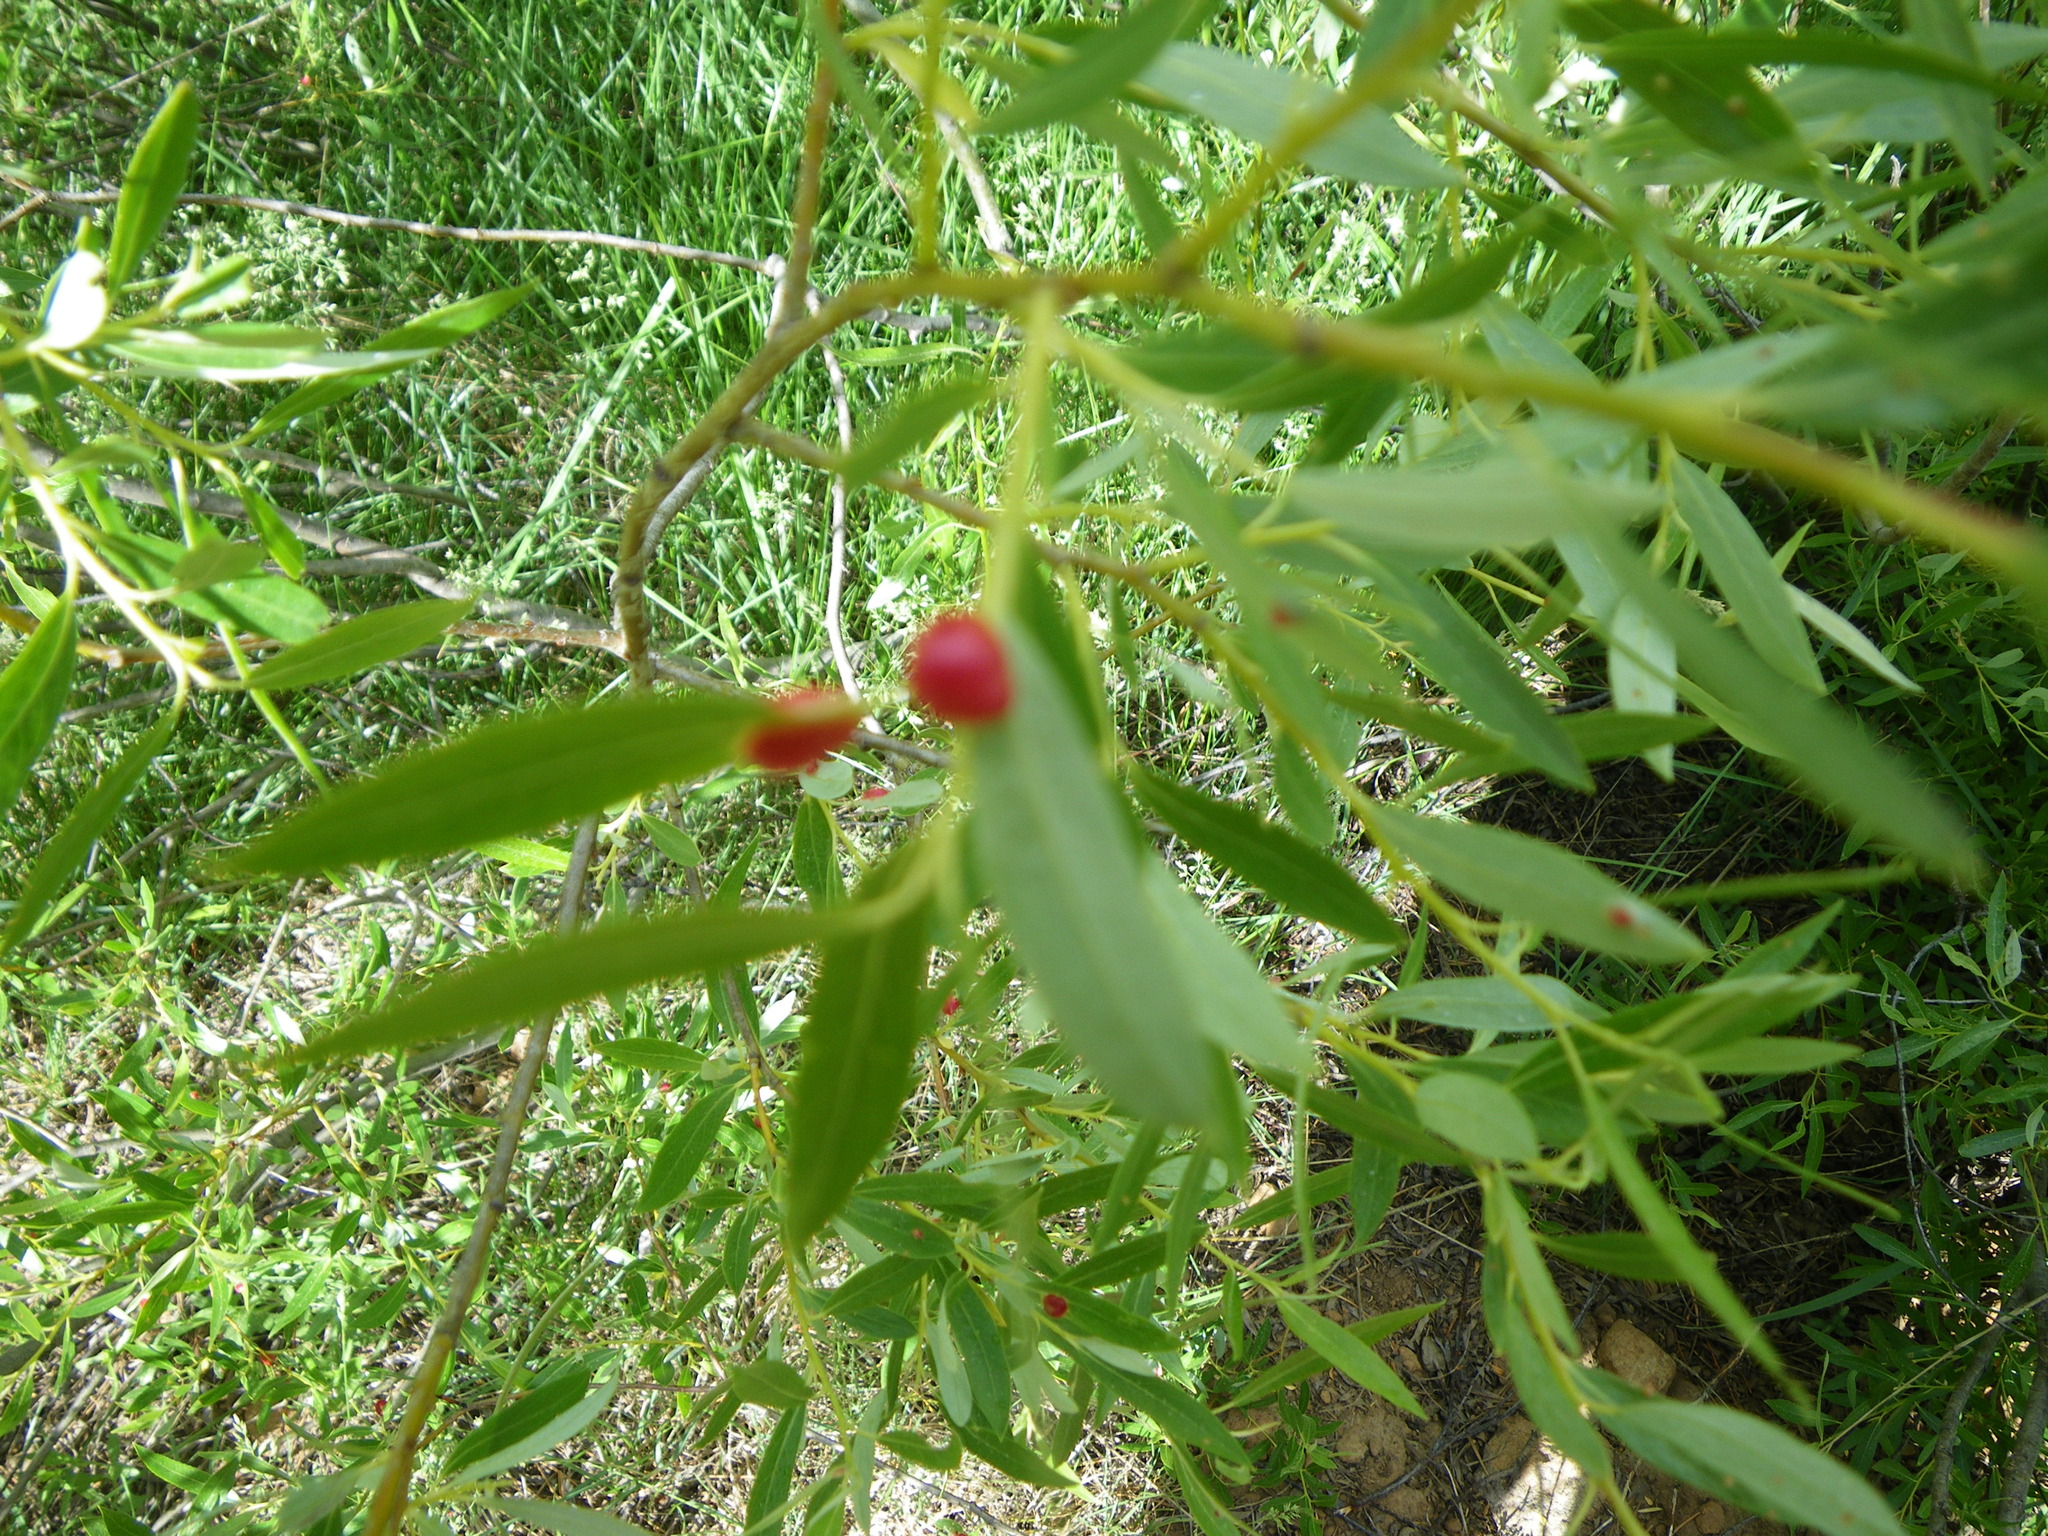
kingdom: Animalia
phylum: Arthropoda
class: Insecta
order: Hymenoptera
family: Tenthredinidae
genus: Euura
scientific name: Euura
